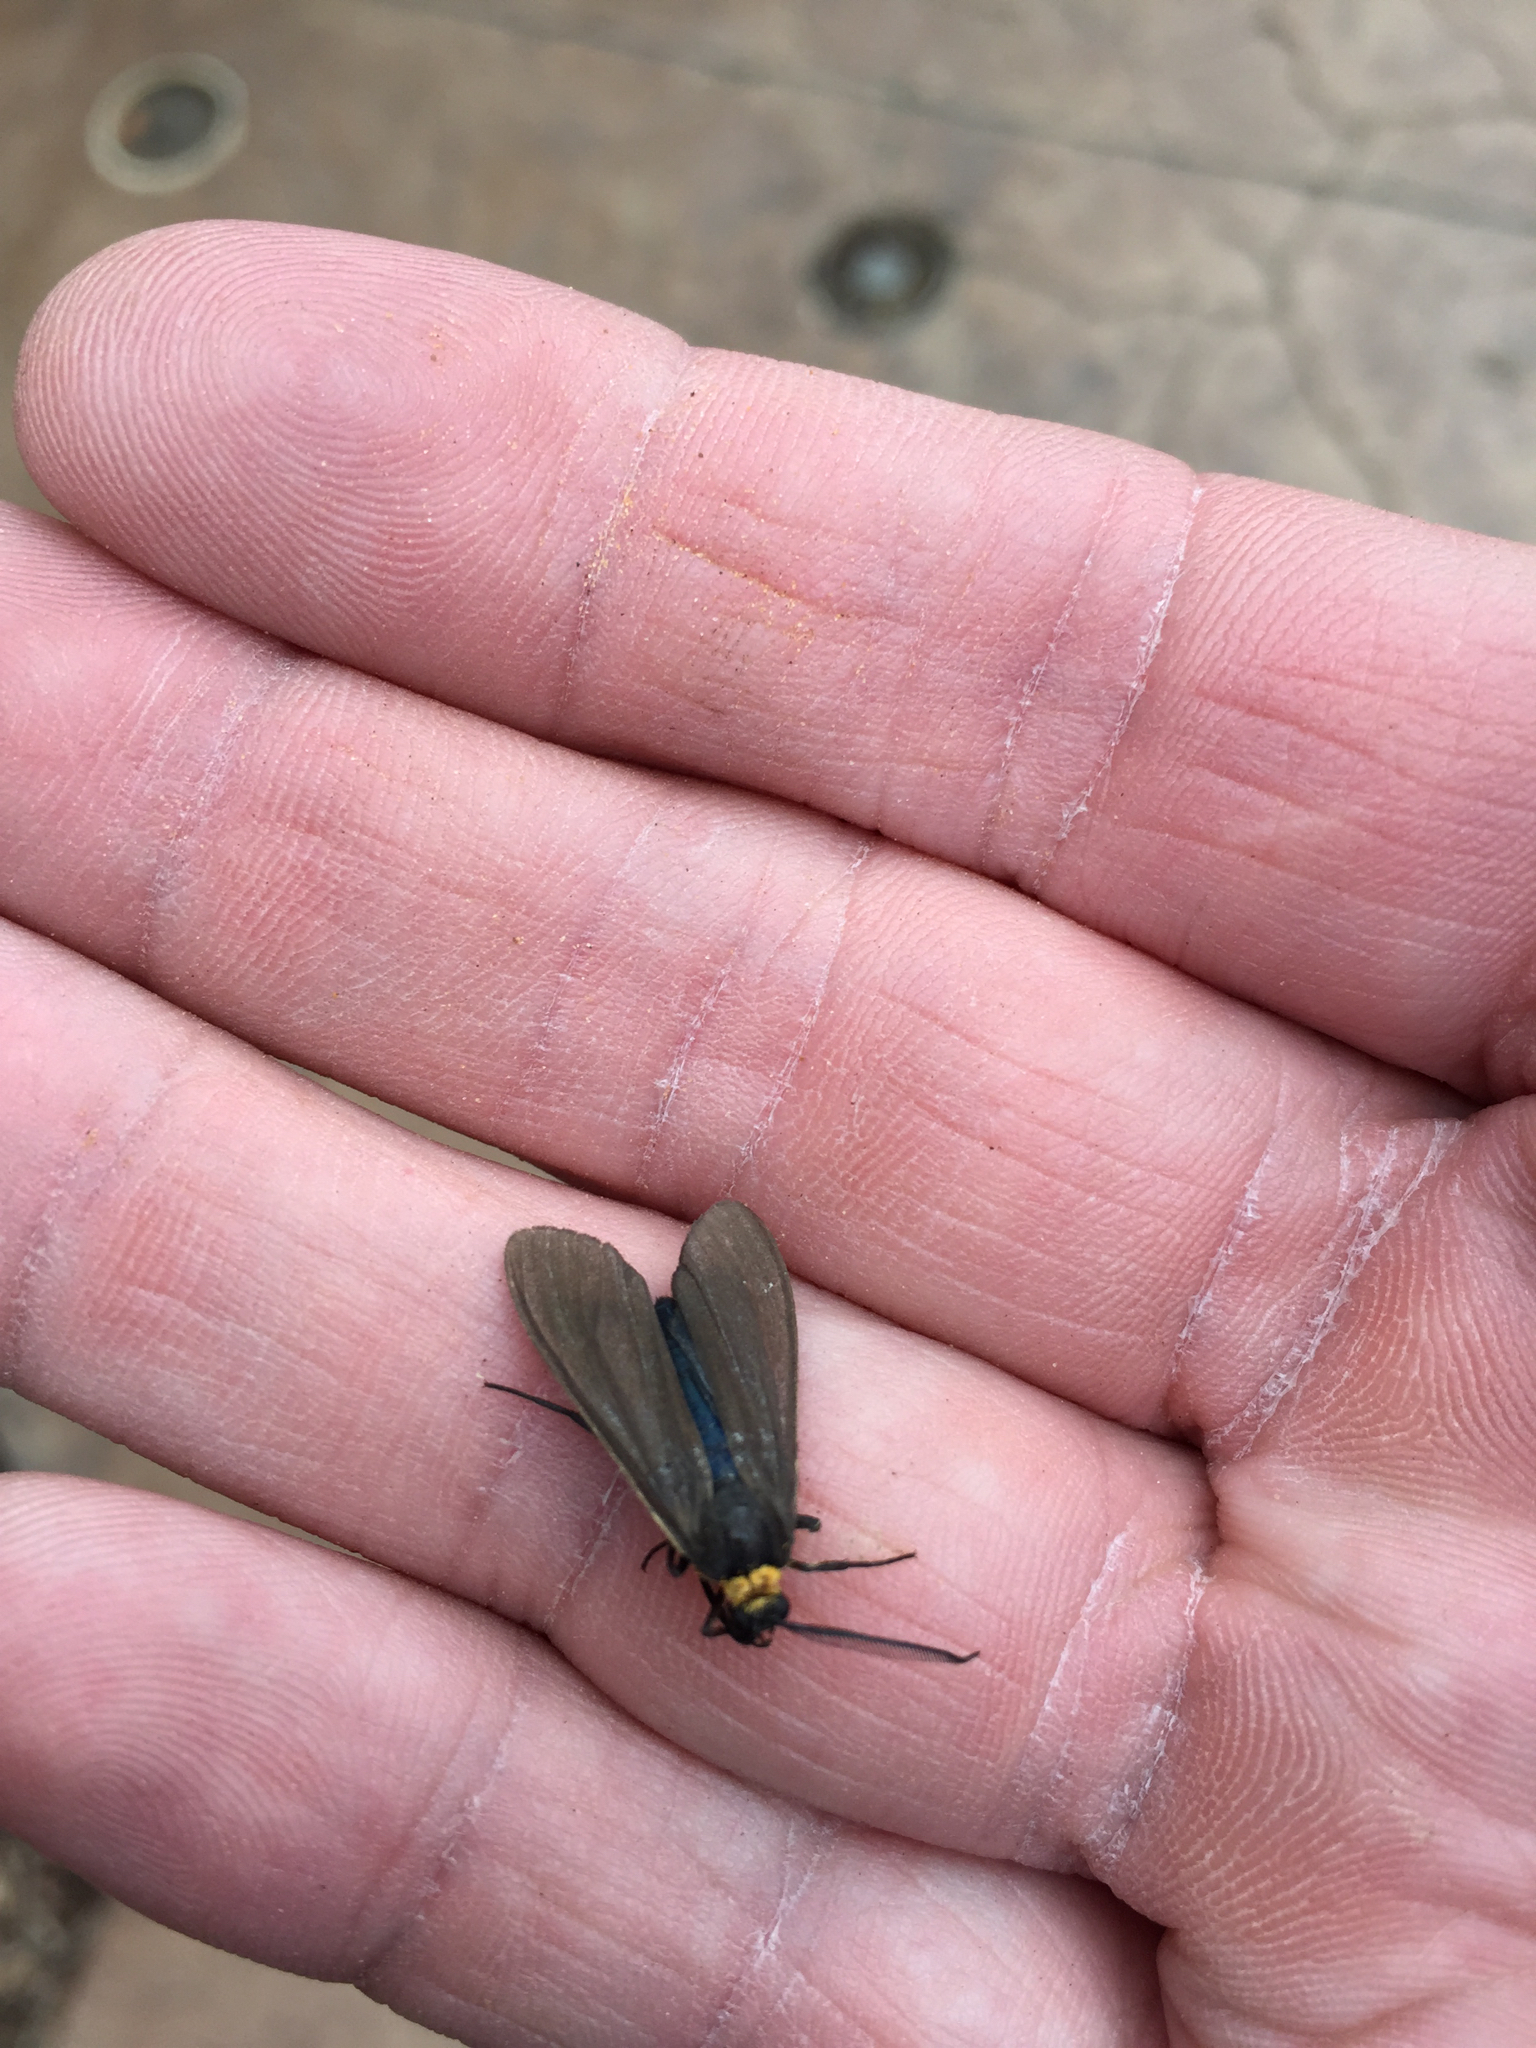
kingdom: Animalia
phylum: Arthropoda
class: Insecta
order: Lepidoptera
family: Erebidae
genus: Cisseps
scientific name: Cisseps fulvicollis
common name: Yellow-collared scape moth
